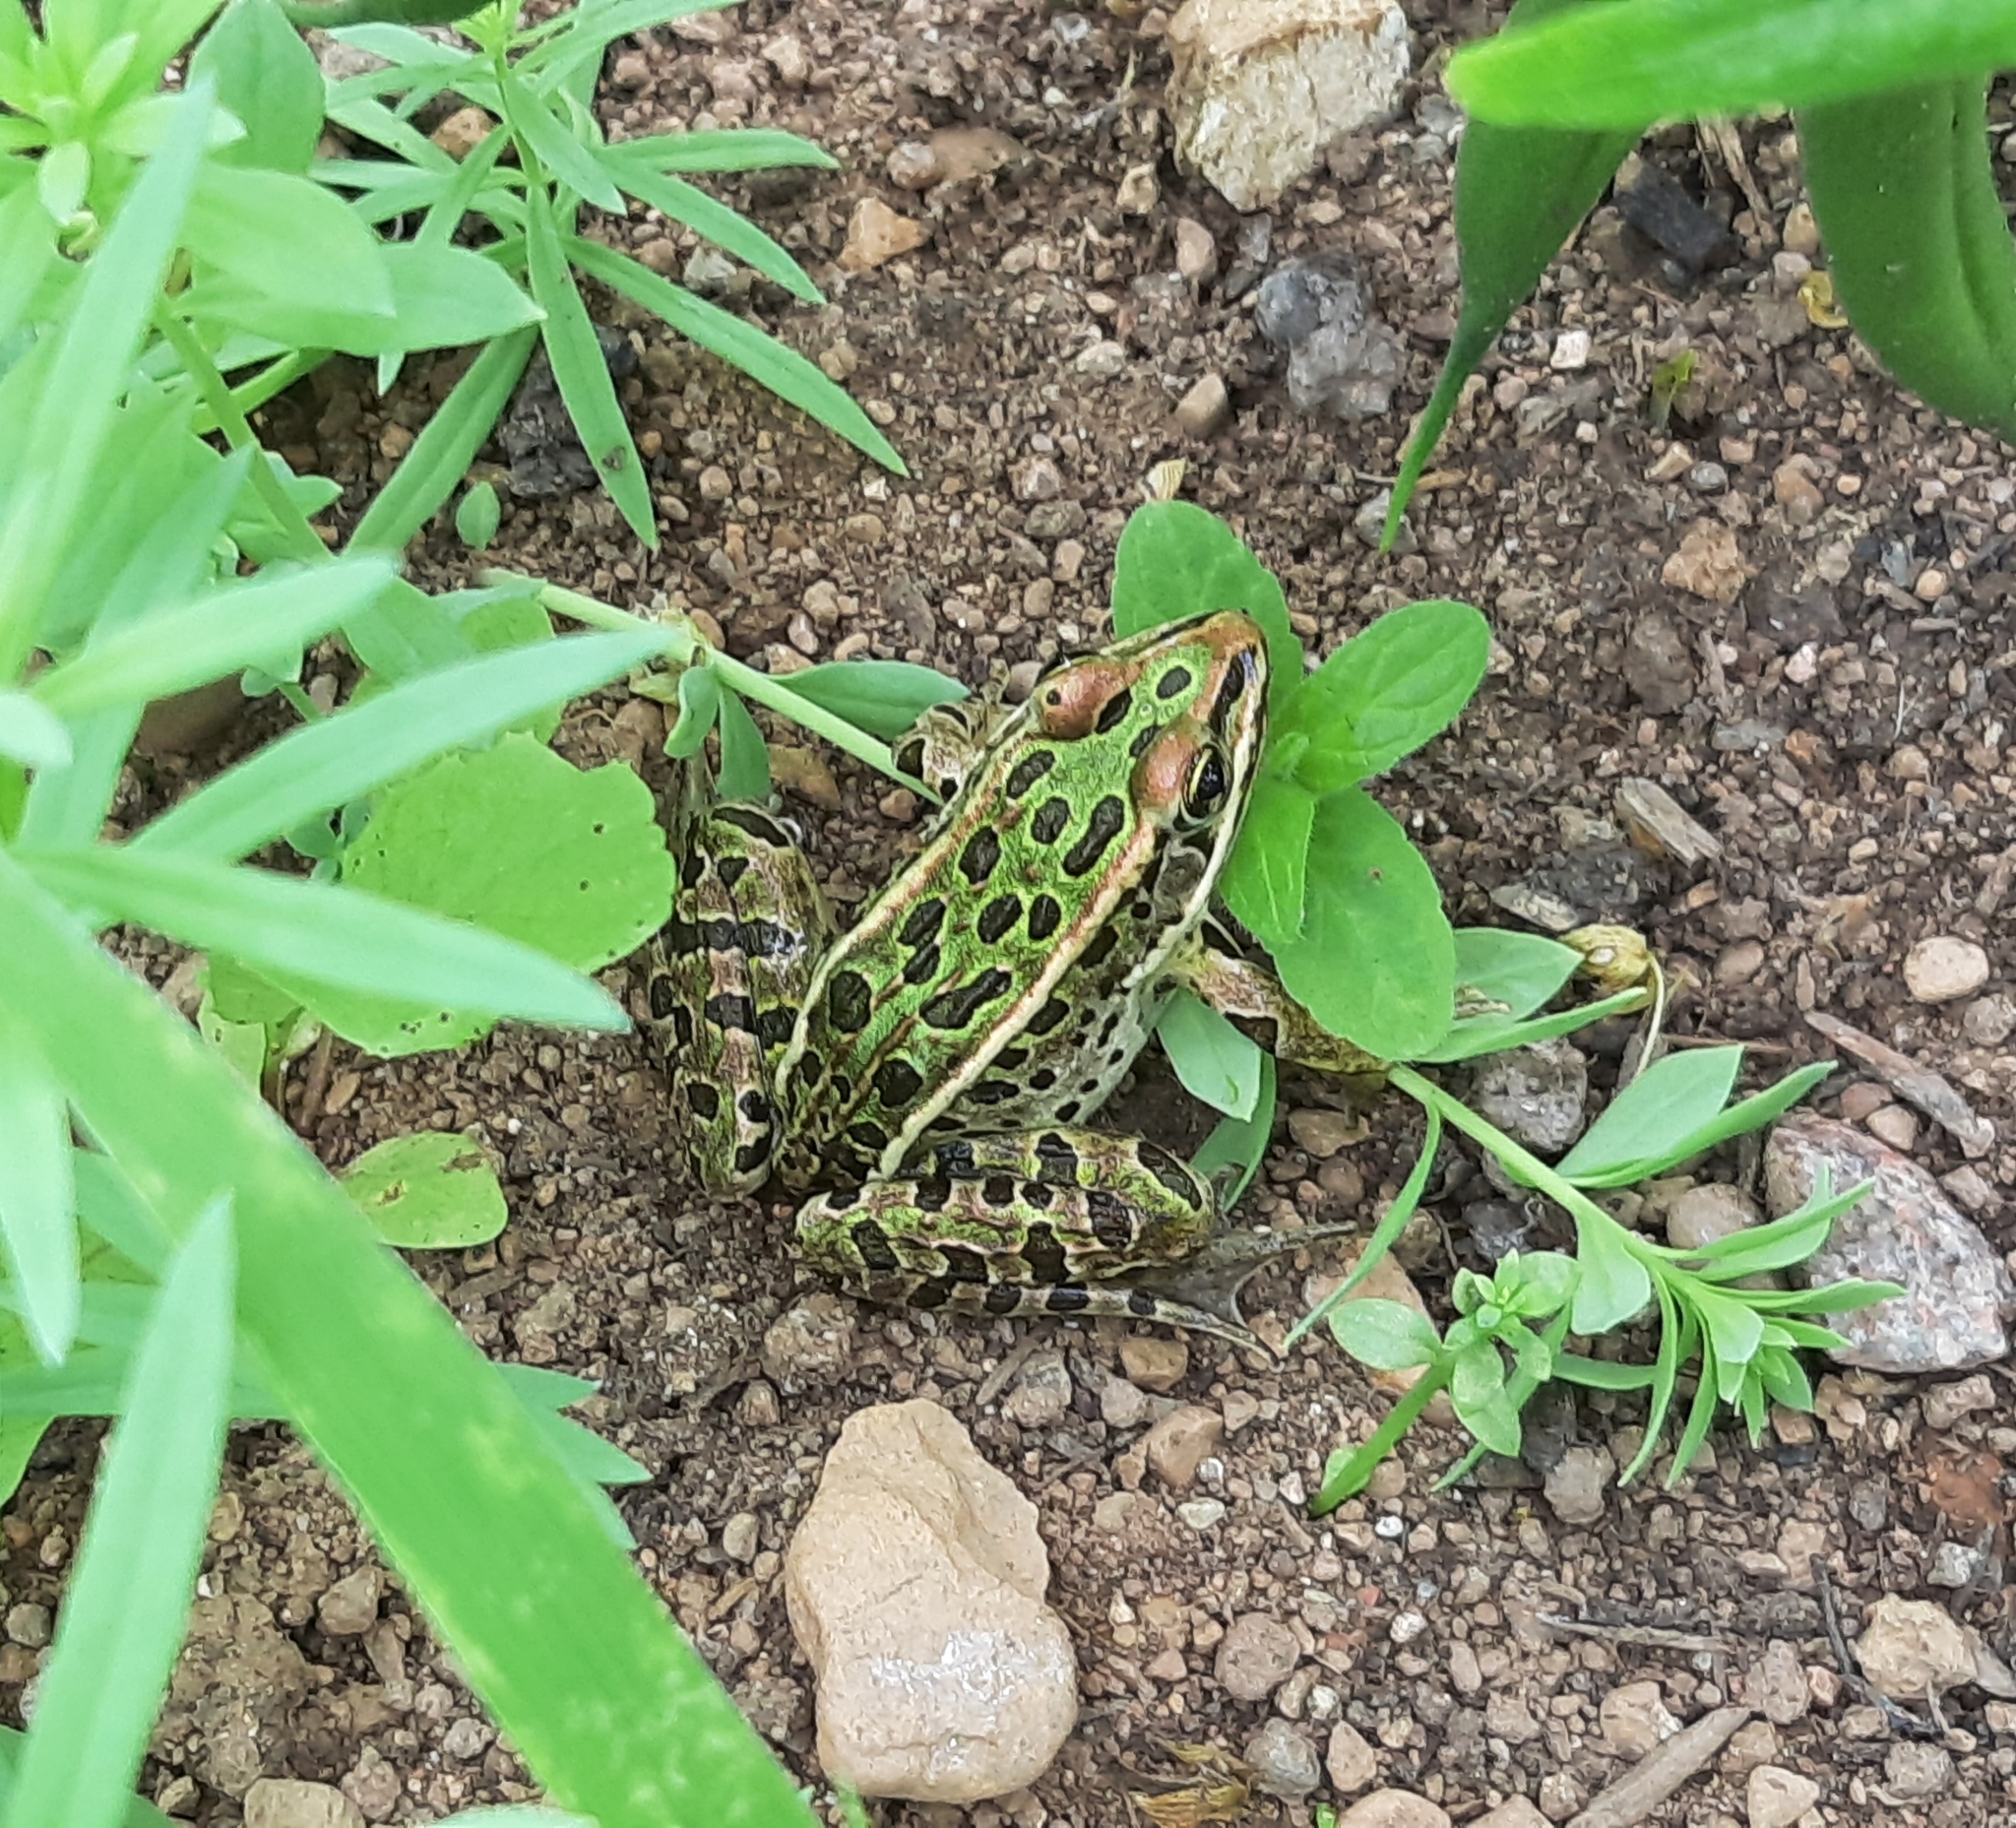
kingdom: Animalia
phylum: Chordata
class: Amphibia
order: Anura
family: Ranidae
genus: Lithobates
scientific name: Lithobates pipiens
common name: Northern leopard frog
